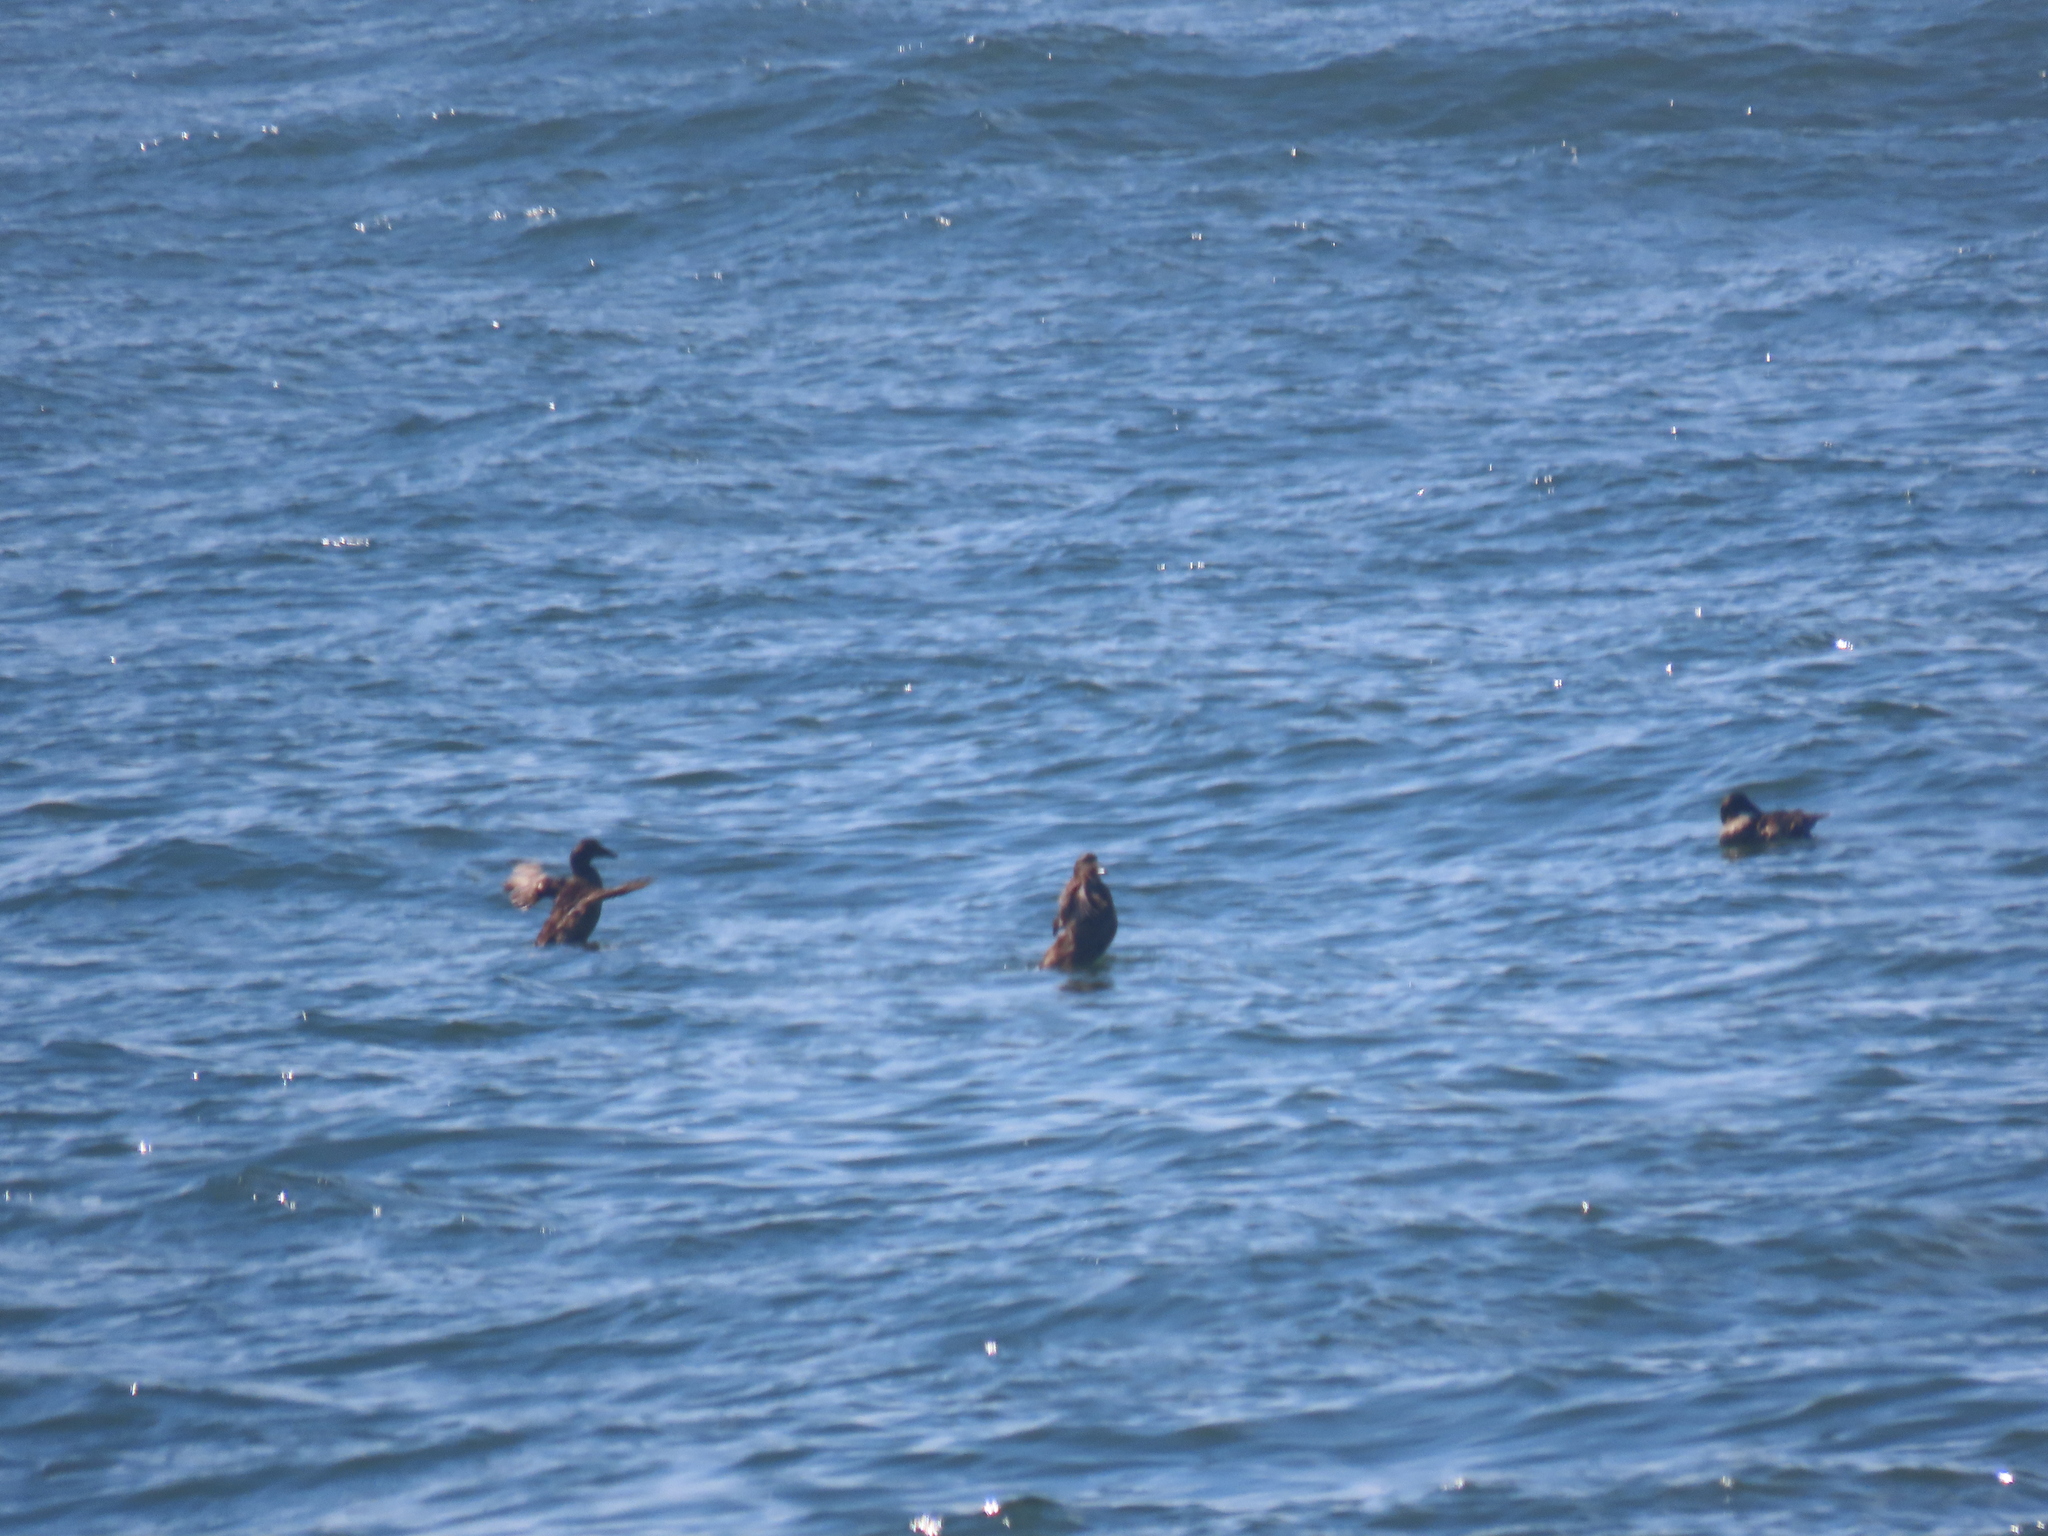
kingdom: Animalia
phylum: Chordata
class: Aves
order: Anseriformes
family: Anatidae
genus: Somateria
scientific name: Somateria mollissima
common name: Common eider
